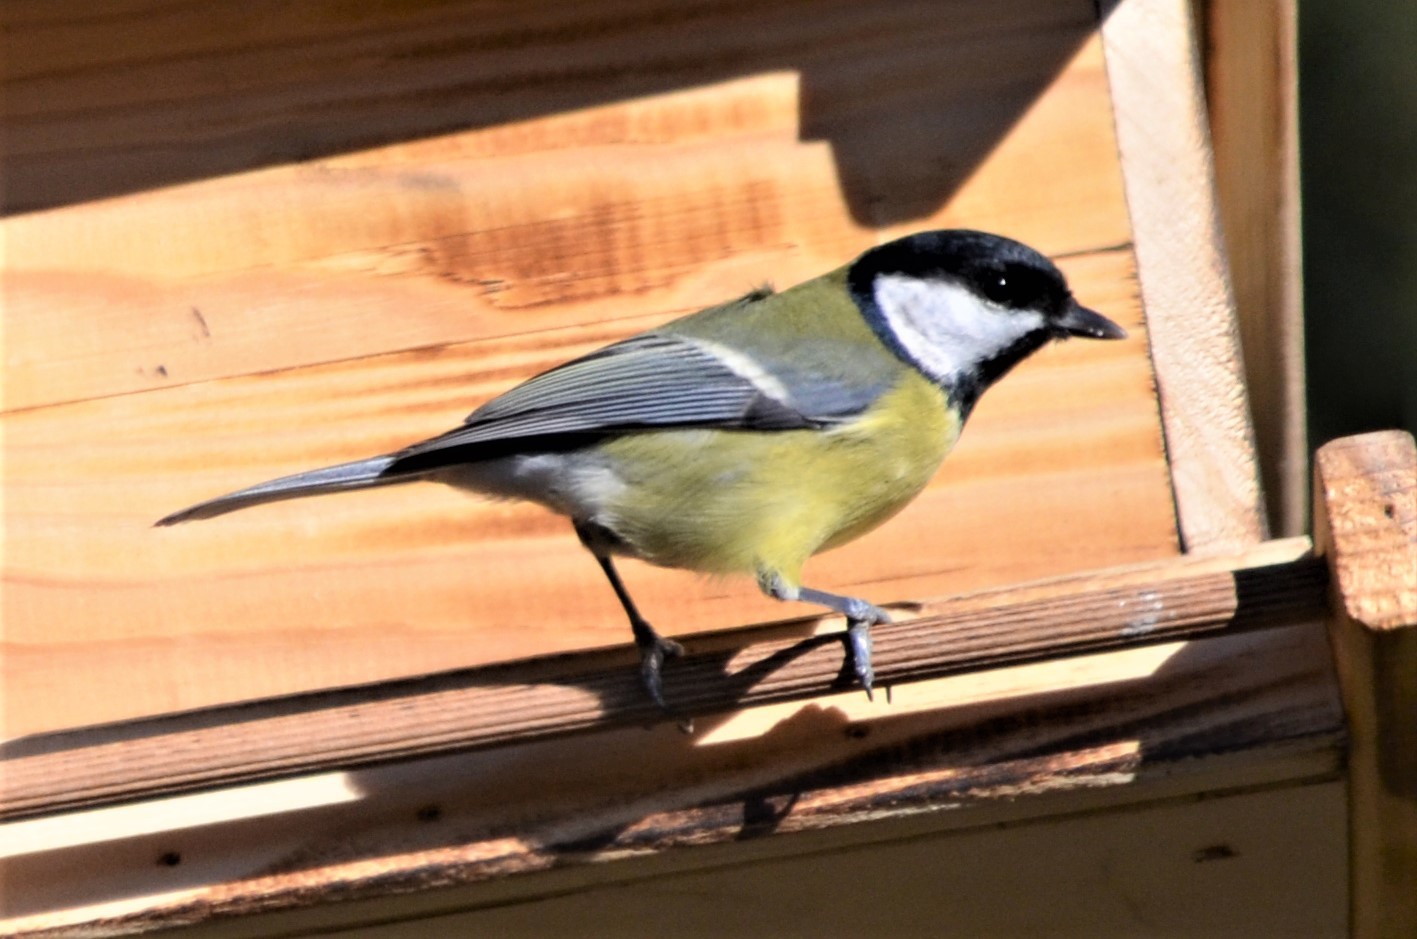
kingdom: Animalia
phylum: Chordata
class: Aves
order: Passeriformes
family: Paridae
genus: Parus
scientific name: Parus major
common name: Great tit
